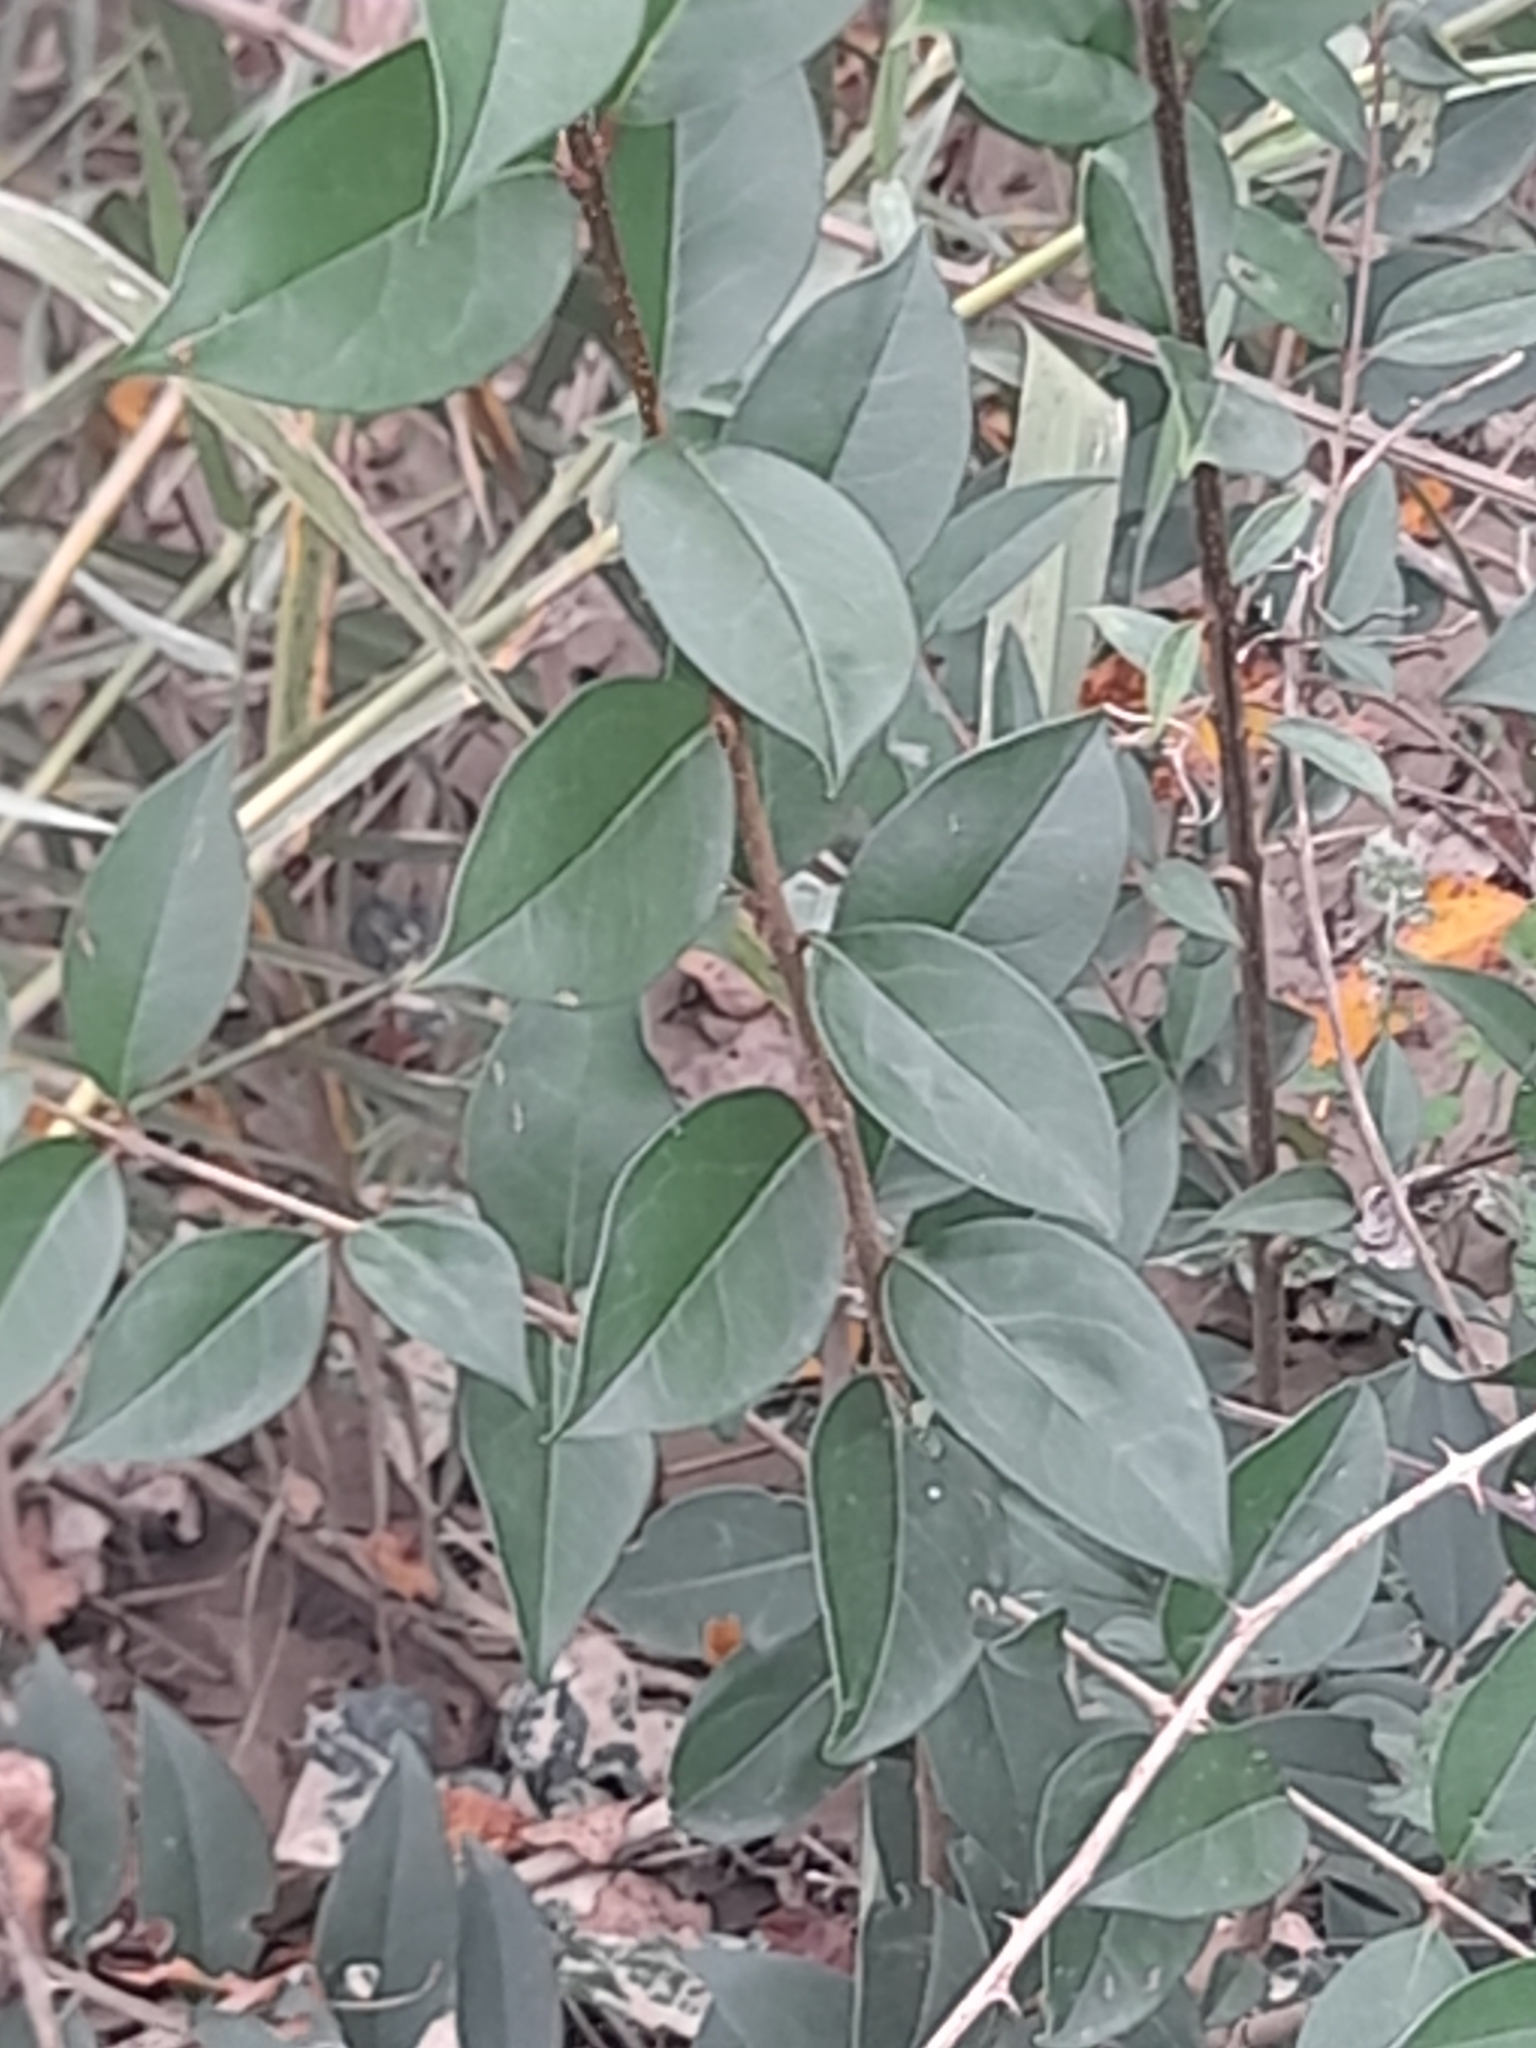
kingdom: Plantae
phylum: Tracheophyta
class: Magnoliopsida
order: Lamiales
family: Oleaceae
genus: Ligustrum
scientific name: Ligustrum lucidum
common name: Glossy privet
